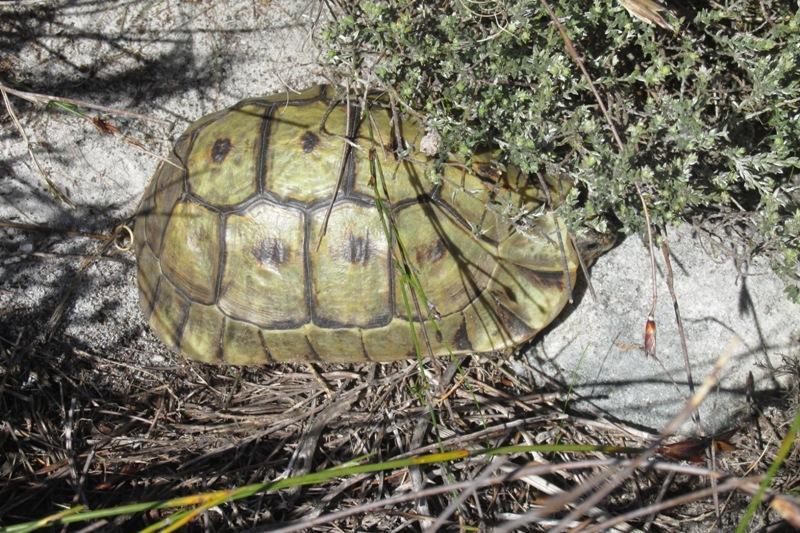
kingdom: Animalia
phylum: Chordata
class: Testudines
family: Testudinidae
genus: Chersina
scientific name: Chersina angulata
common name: South african bowsprit tortoise
